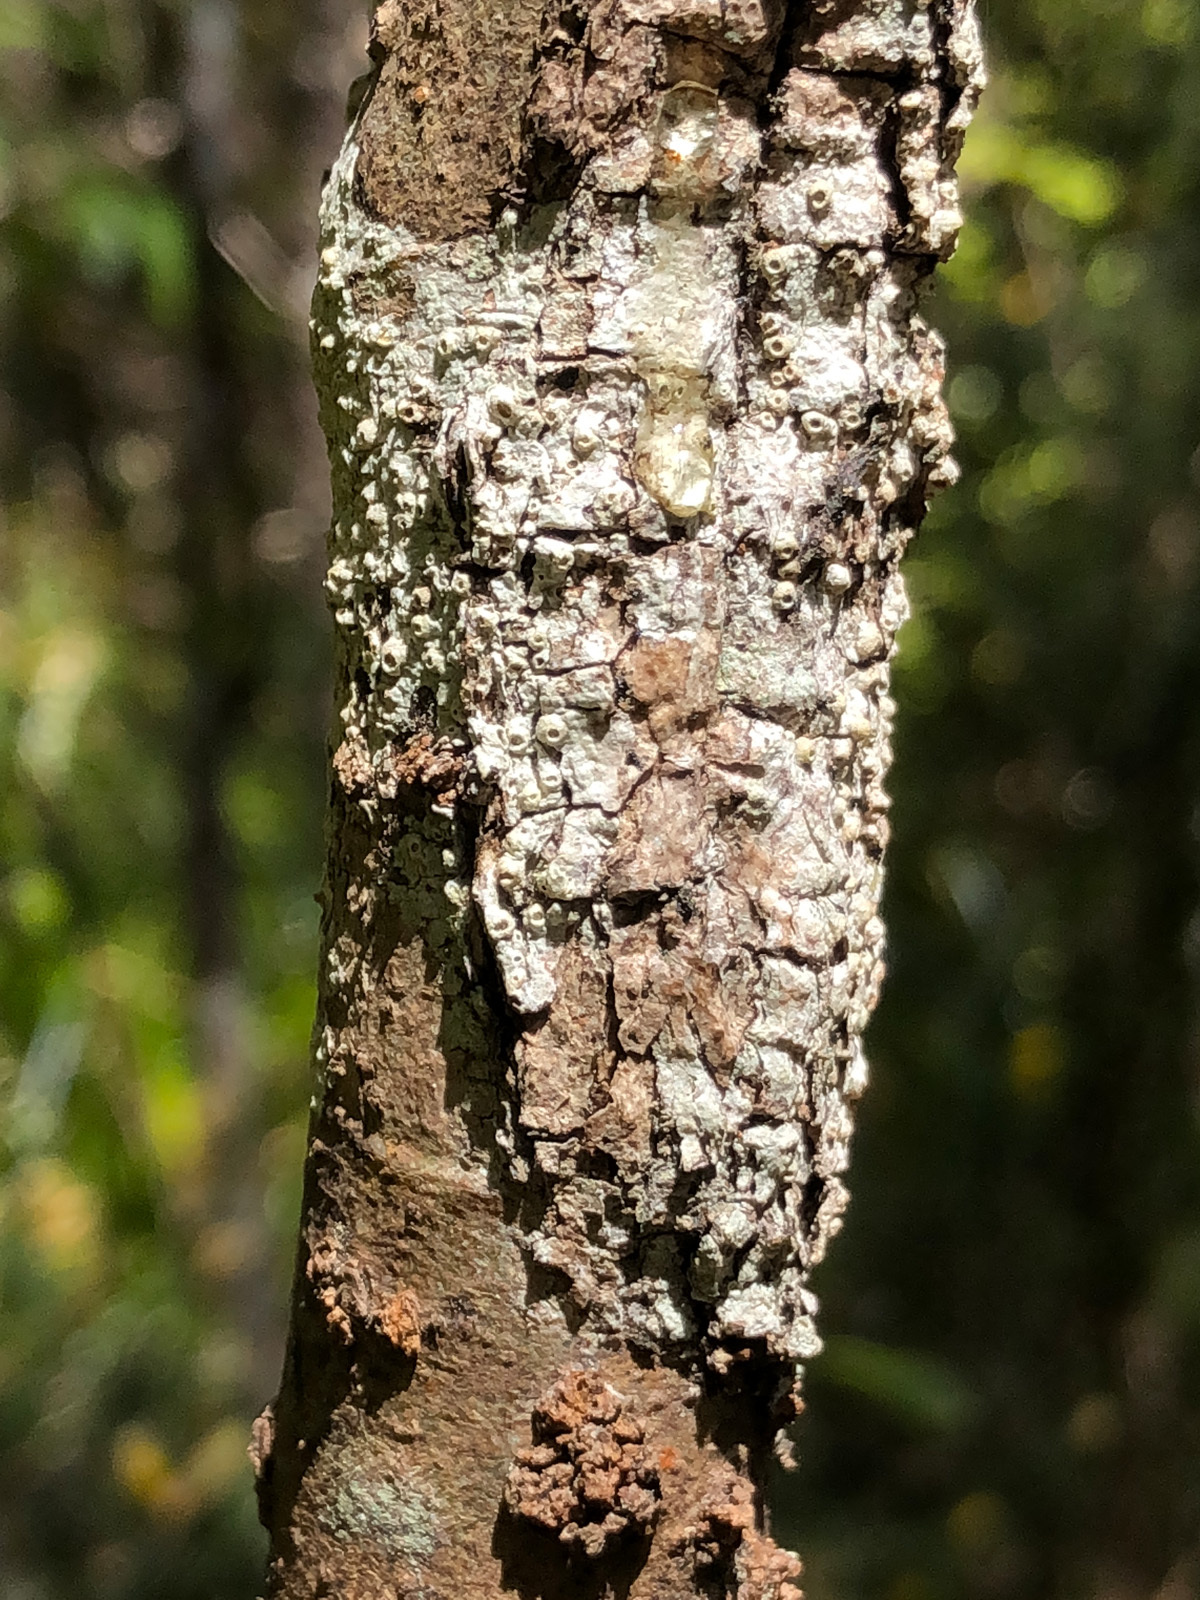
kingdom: Fungi
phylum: Ascomycota
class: Lecanoromycetes
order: Ostropales
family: Graphidaceae
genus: Thelotrema
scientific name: Thelotrema lepadinum
